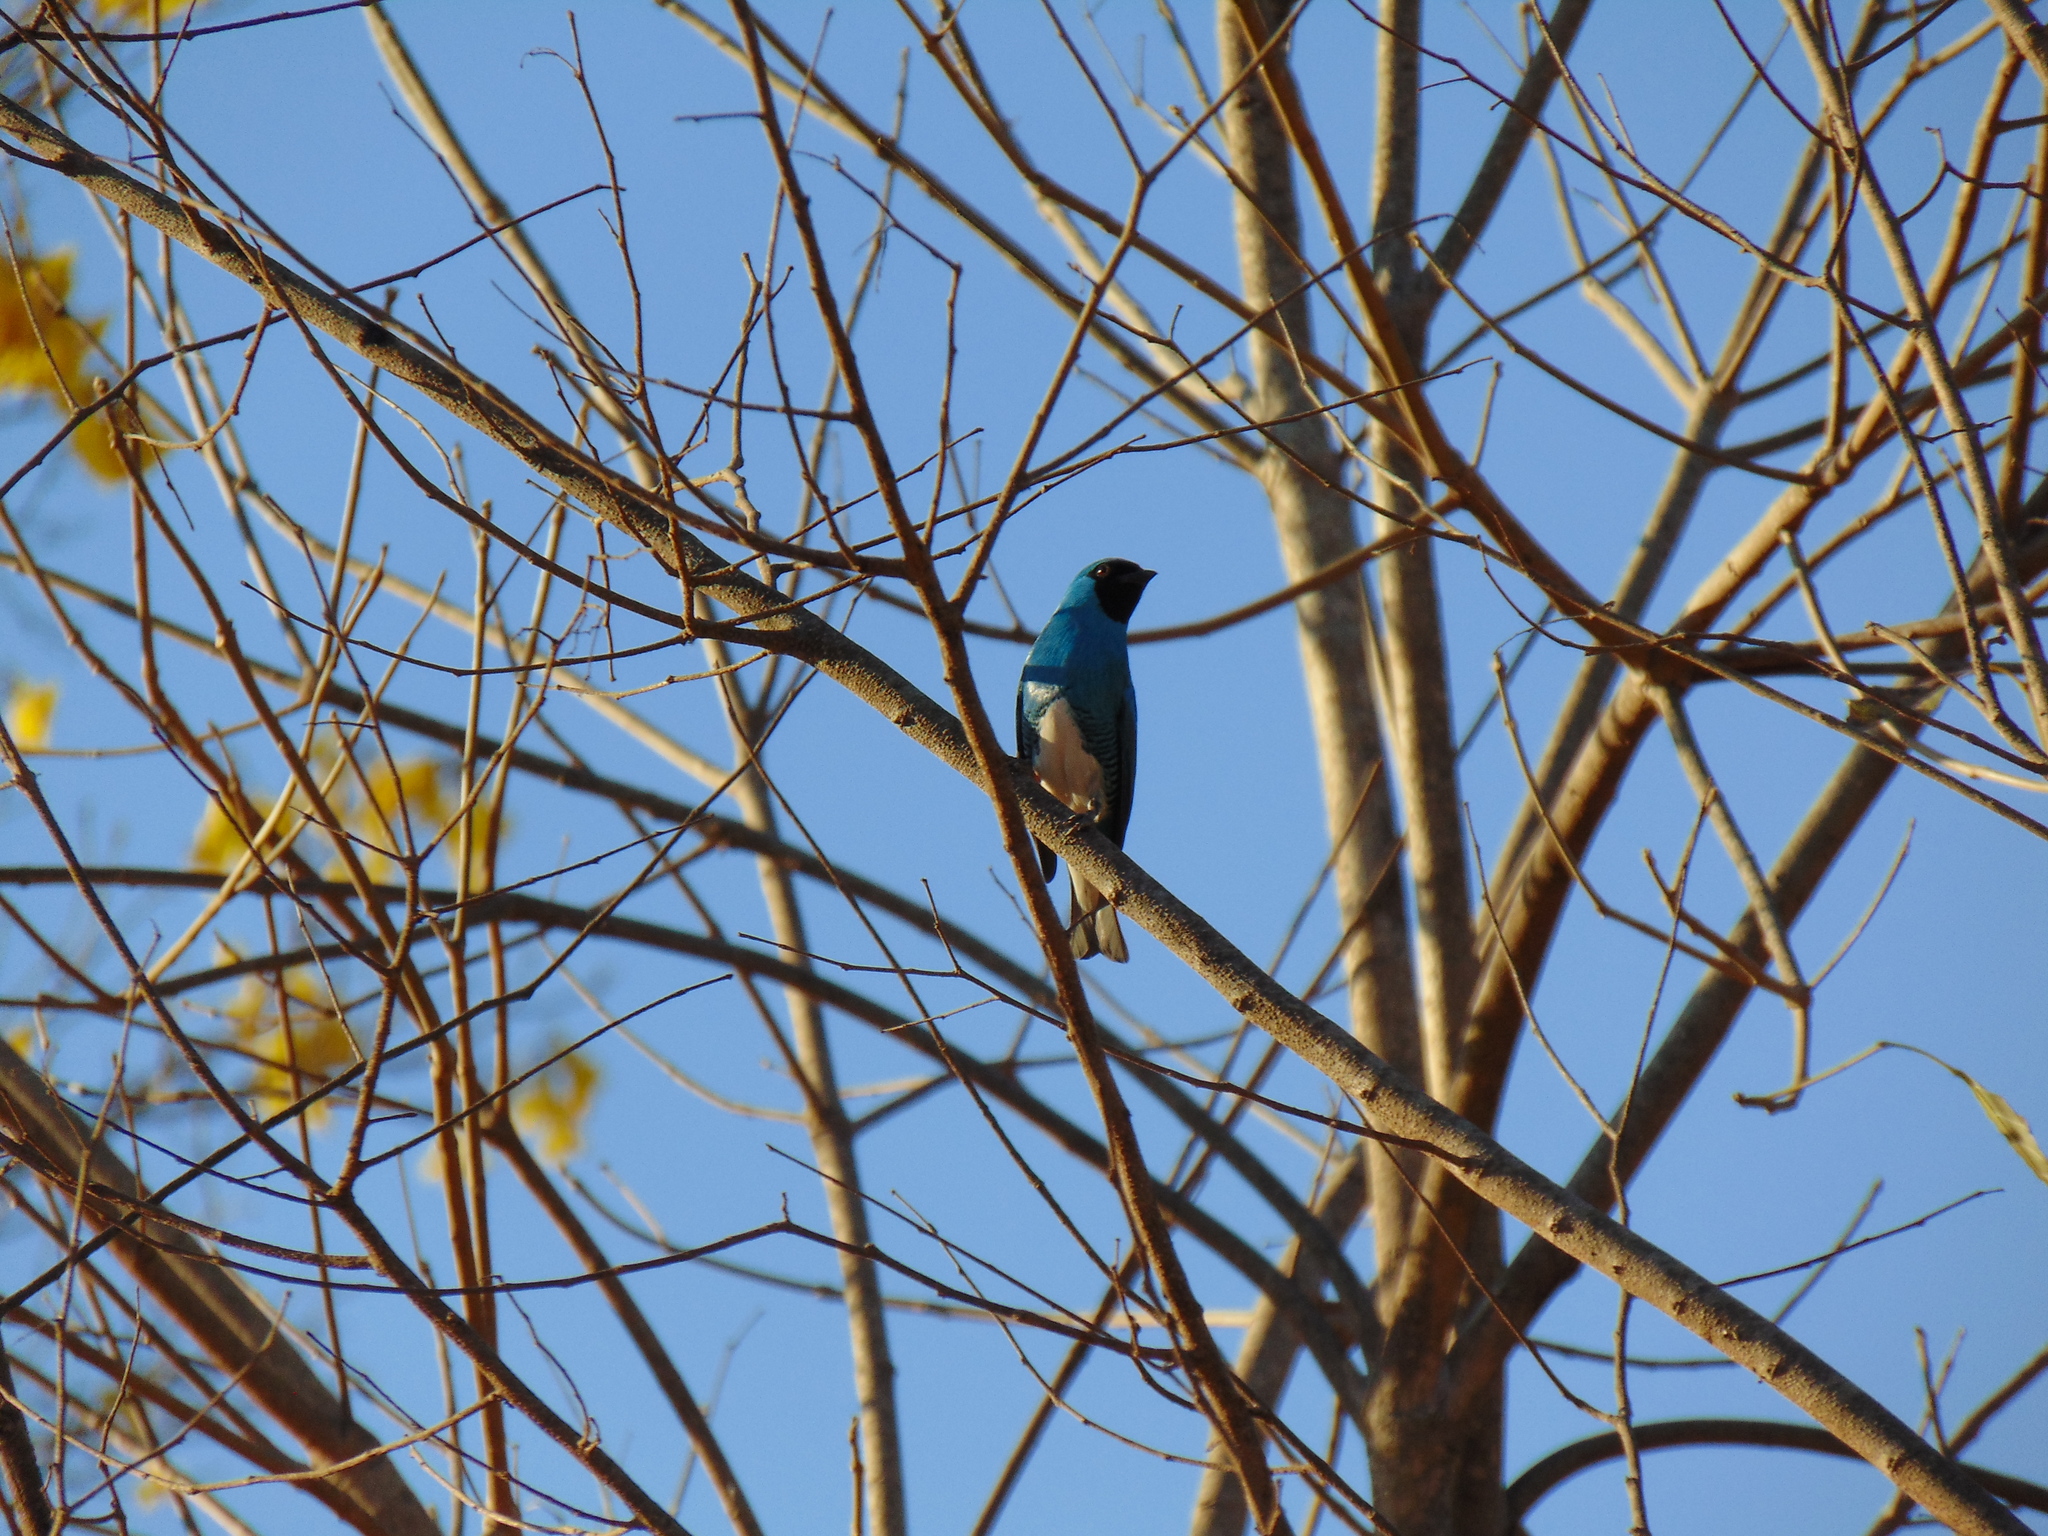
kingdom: Animalia
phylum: Chordata
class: Aves
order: Passeriformes
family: Thraupidae
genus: Tersina
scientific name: Tersina viridis
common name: Swallow tanager
